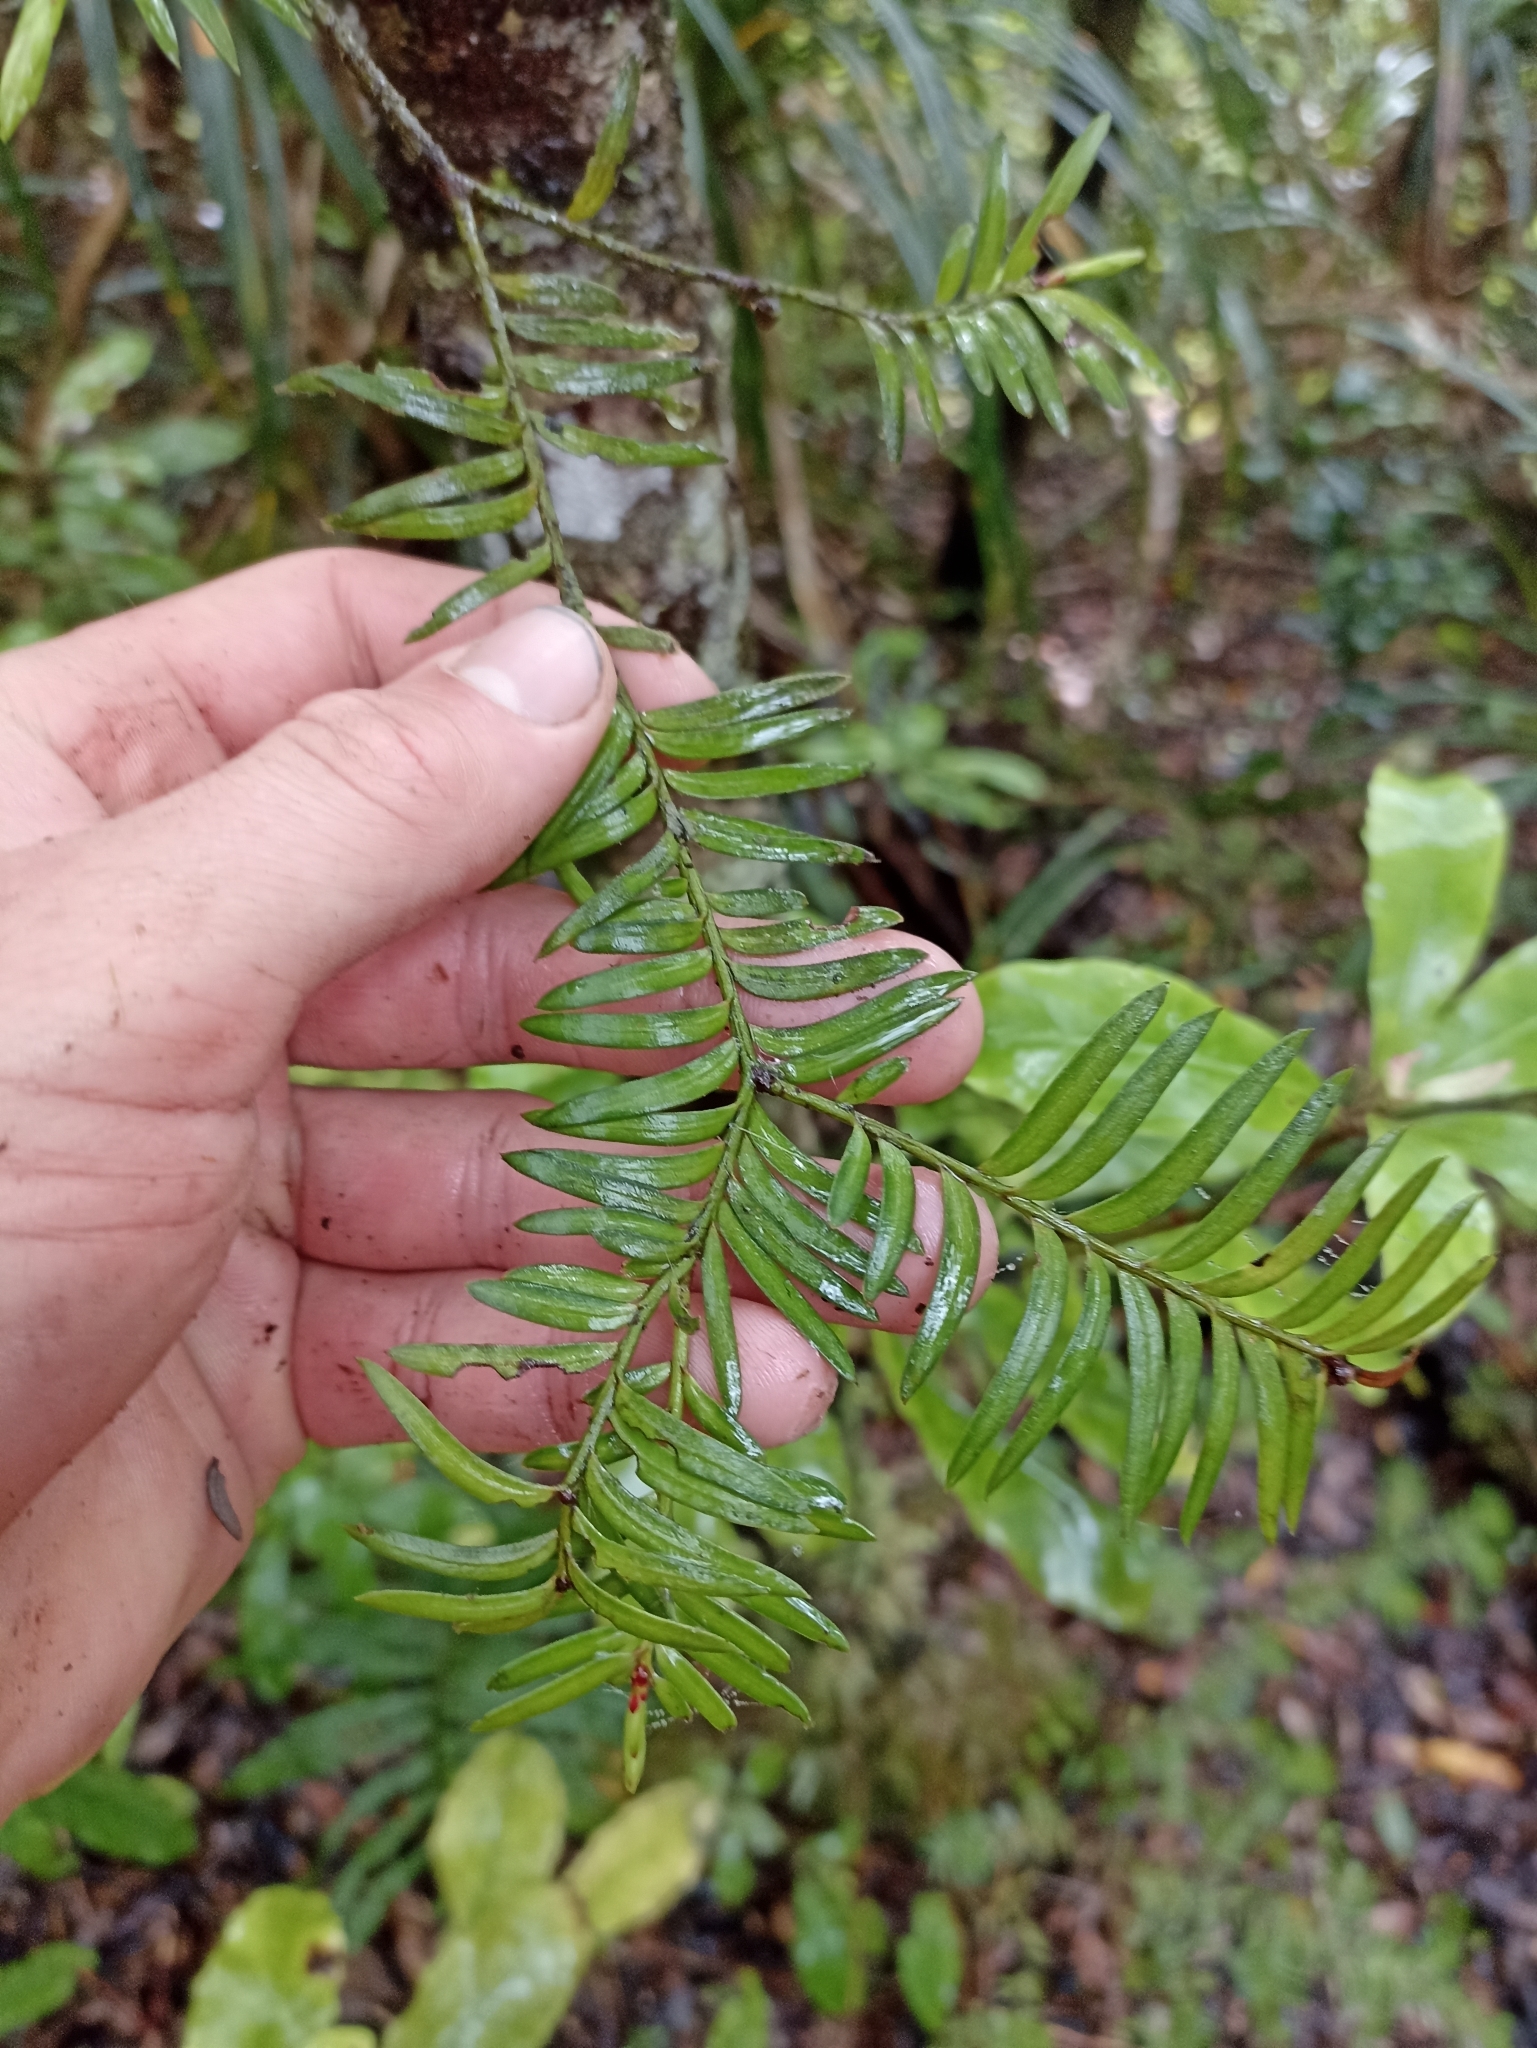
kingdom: Plantae
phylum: Tracheophyta
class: Pinopsida
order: Pinales
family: Podocarpaceae
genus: Prumnopitys
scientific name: Prumnopitys ferruginea
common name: Brown pine
